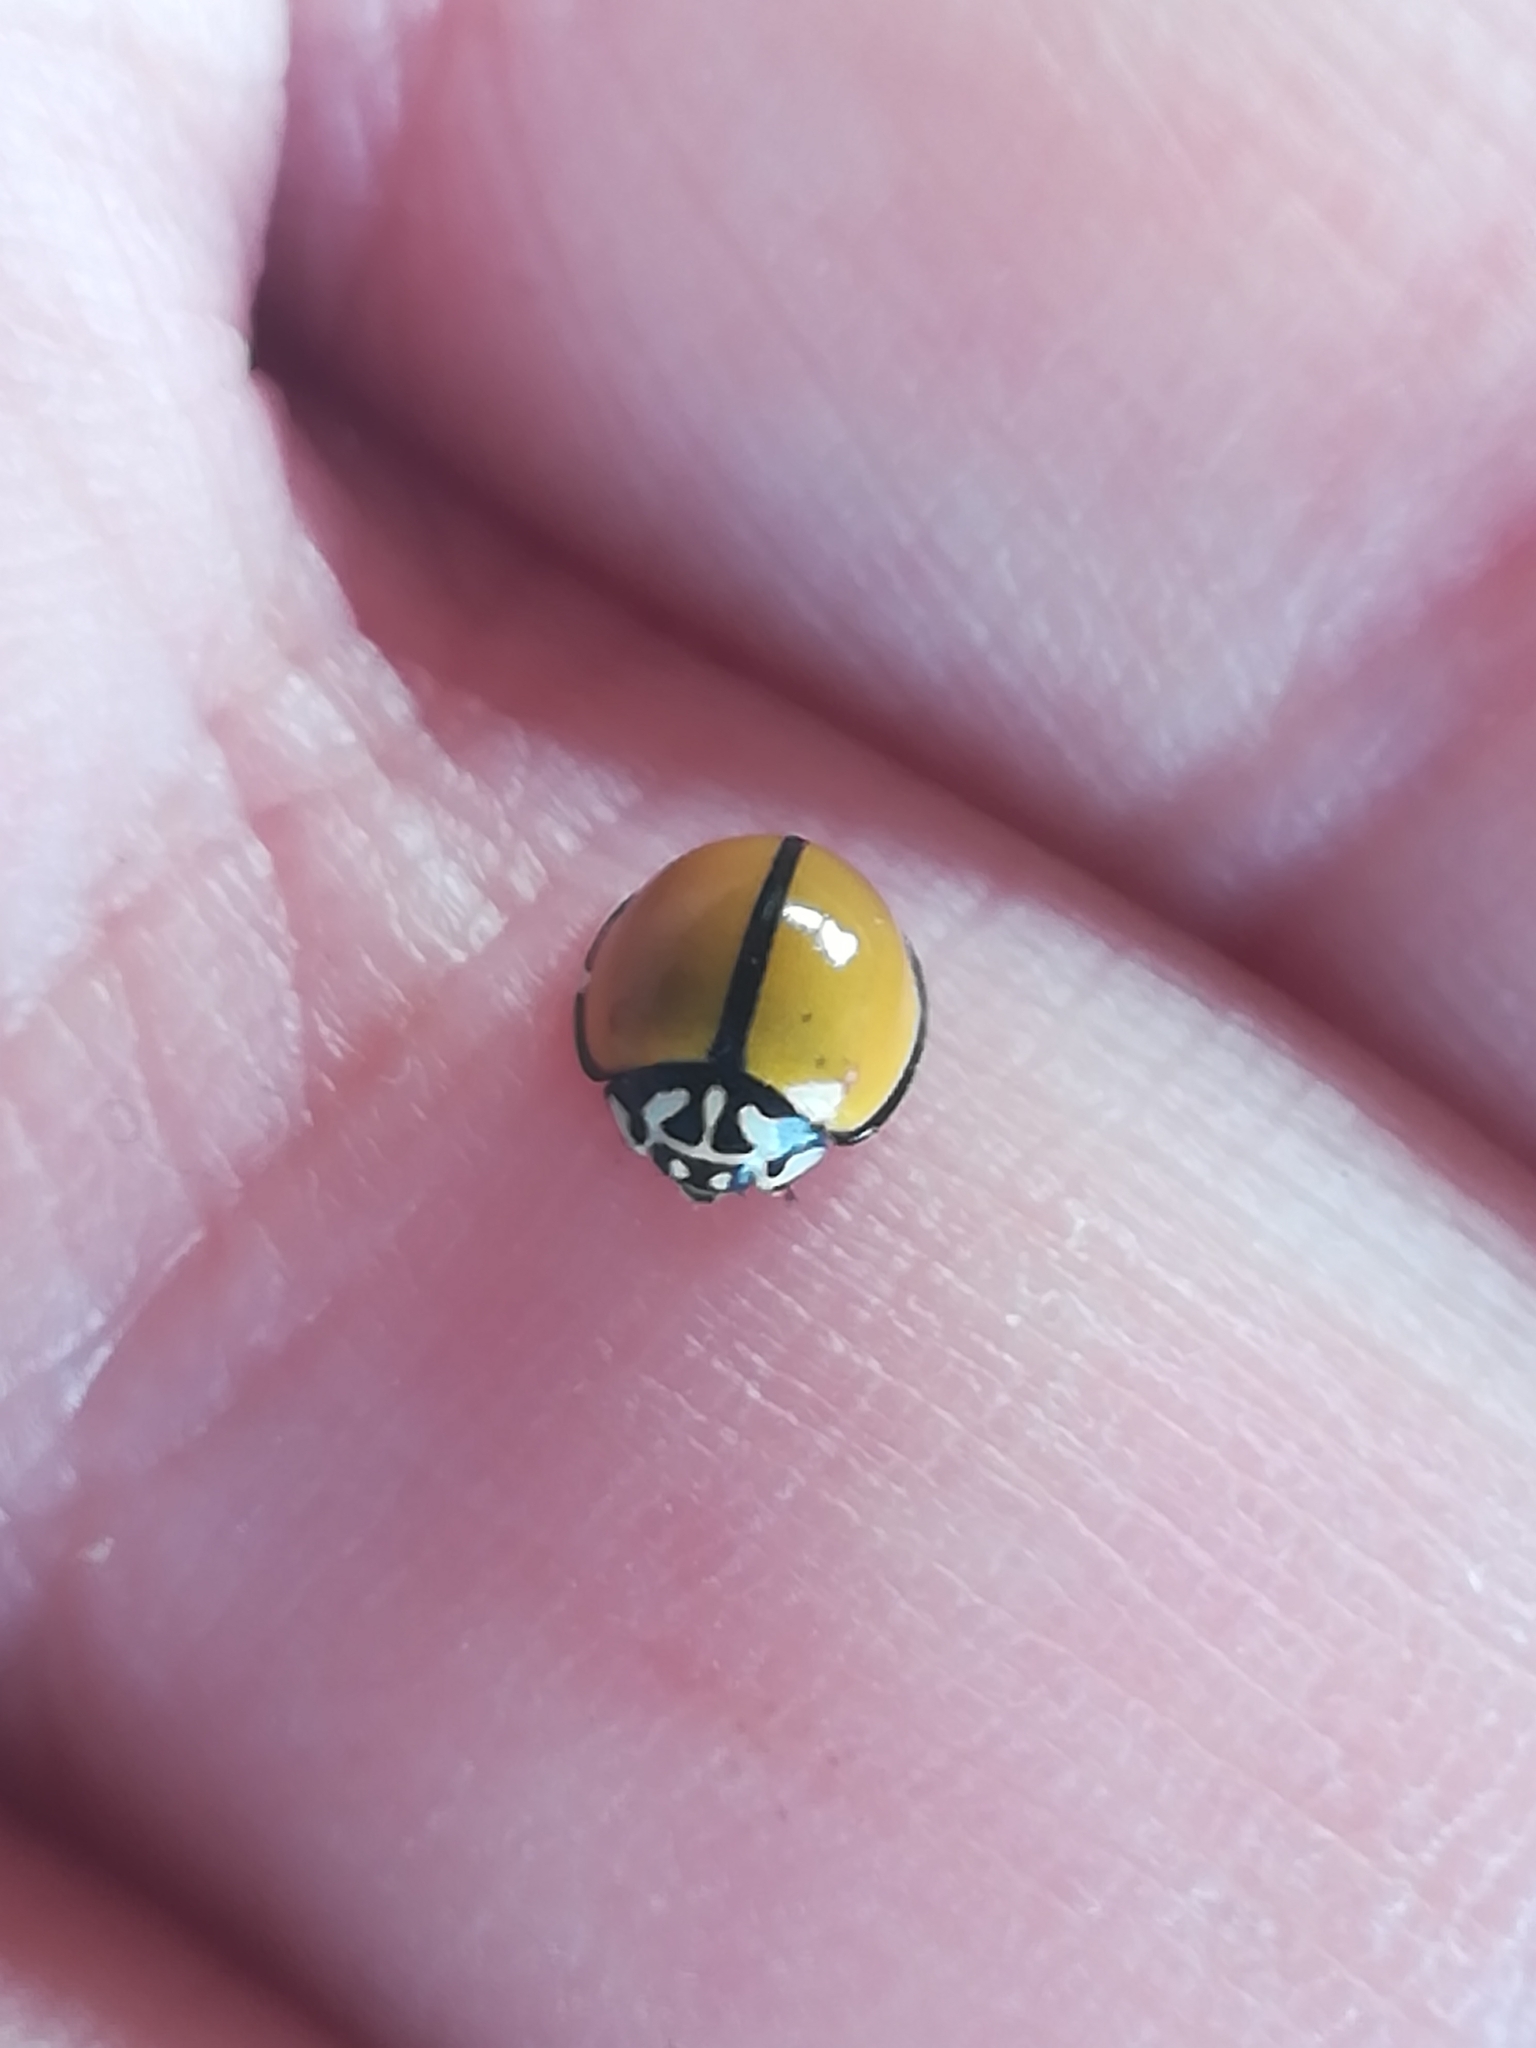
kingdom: Animalia
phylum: Arthropoda
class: Insecta
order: Coleoptera
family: Coccinellidae
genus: Oenopia
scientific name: Oenopia
